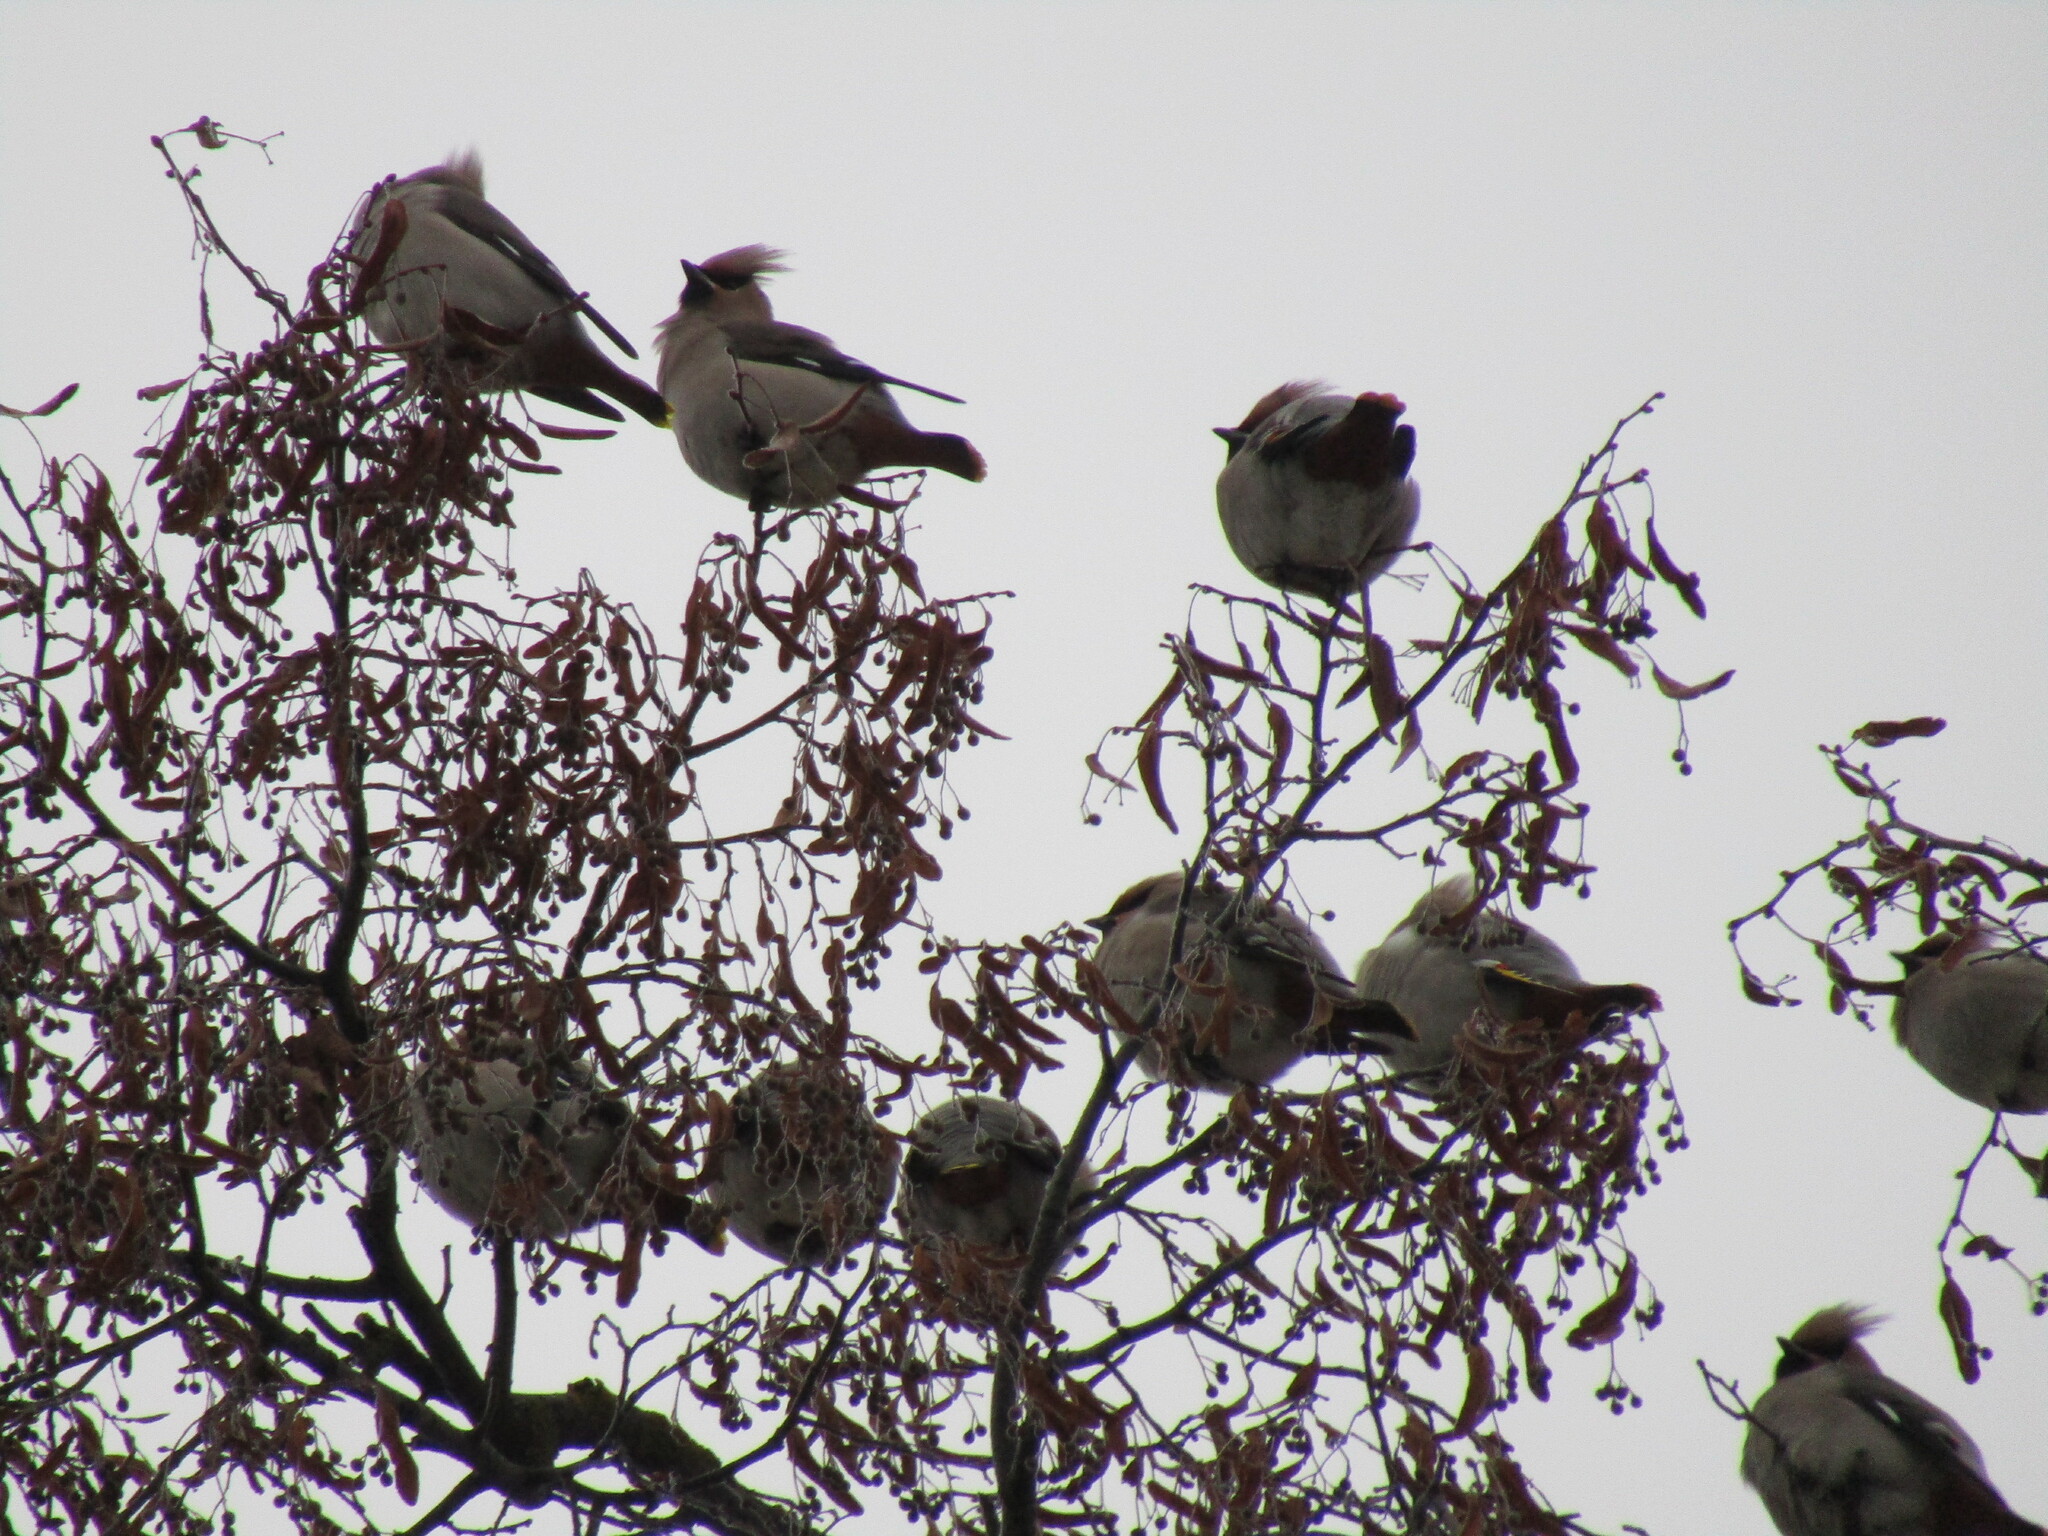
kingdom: Animalia
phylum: Chordata
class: Aves
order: Passeriformes
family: Bombycillidae
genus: Bombycilla
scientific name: Bombycilla garrulus
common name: Bohemian waxwing
